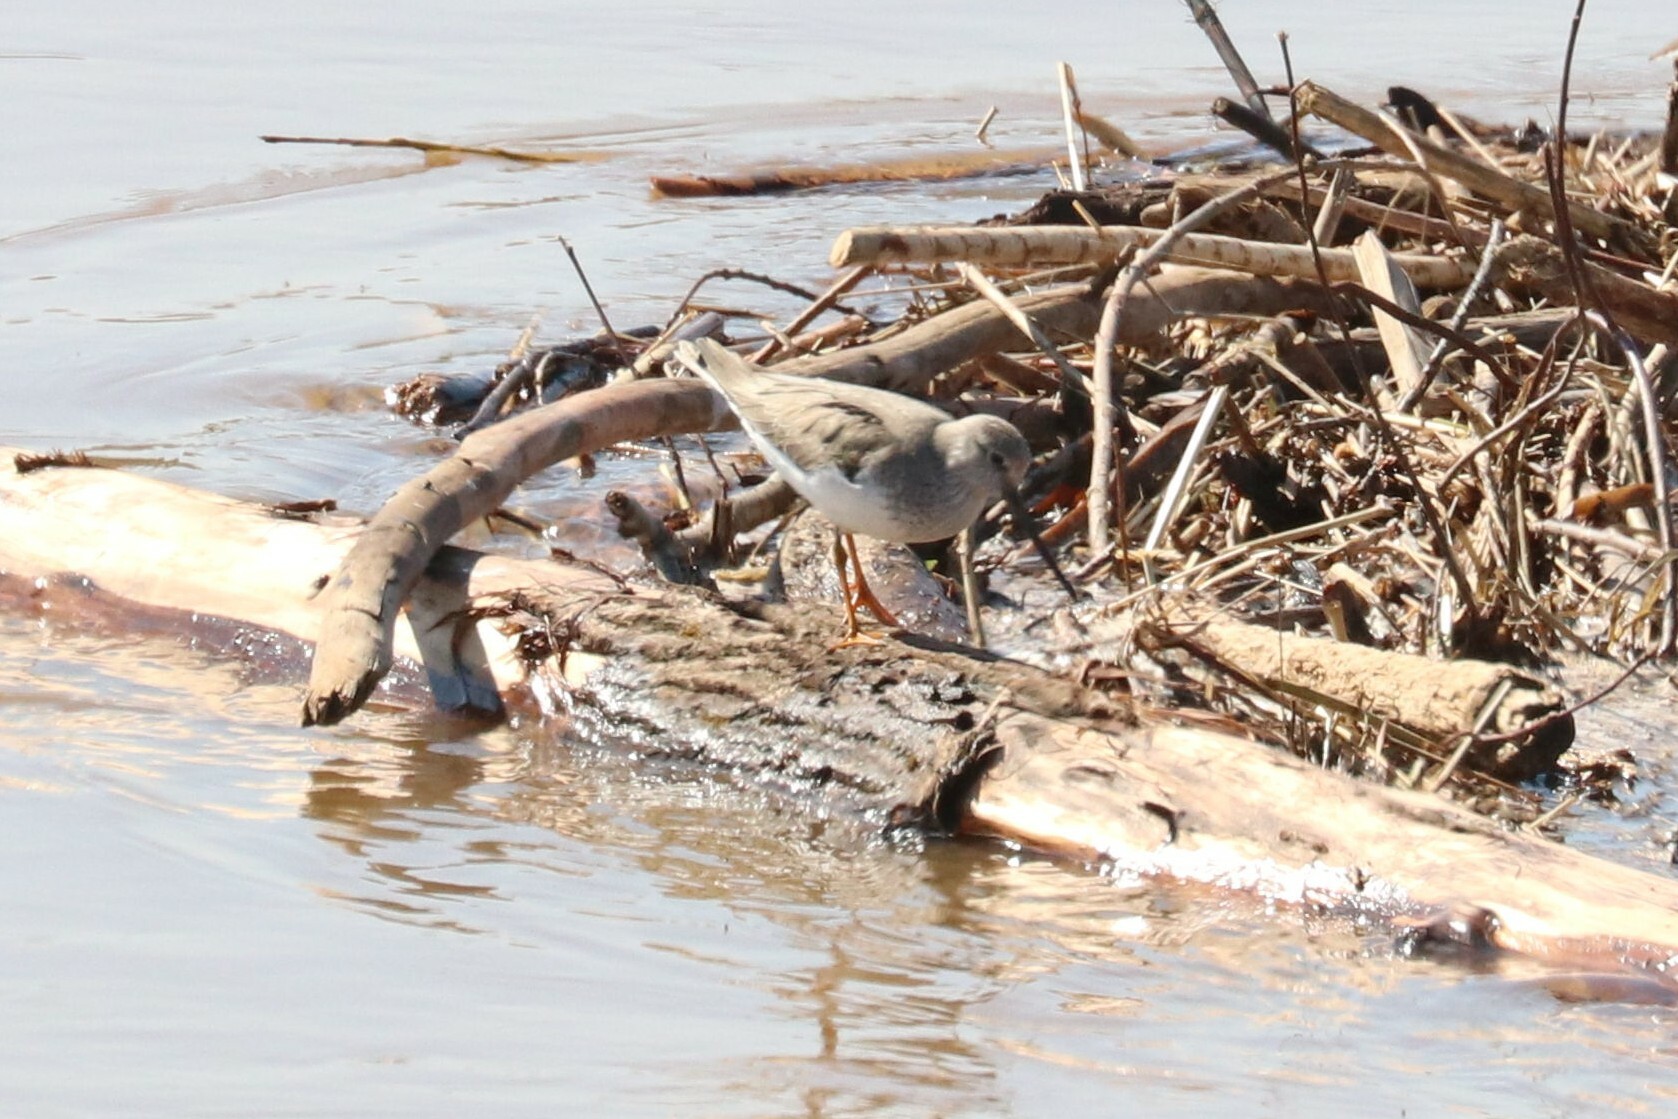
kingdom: Animalia
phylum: Chordata
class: Aves
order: Charadriiformes
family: Scolopacidae
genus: Xenus
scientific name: Xenus cinereus
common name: Terek sandpiper
